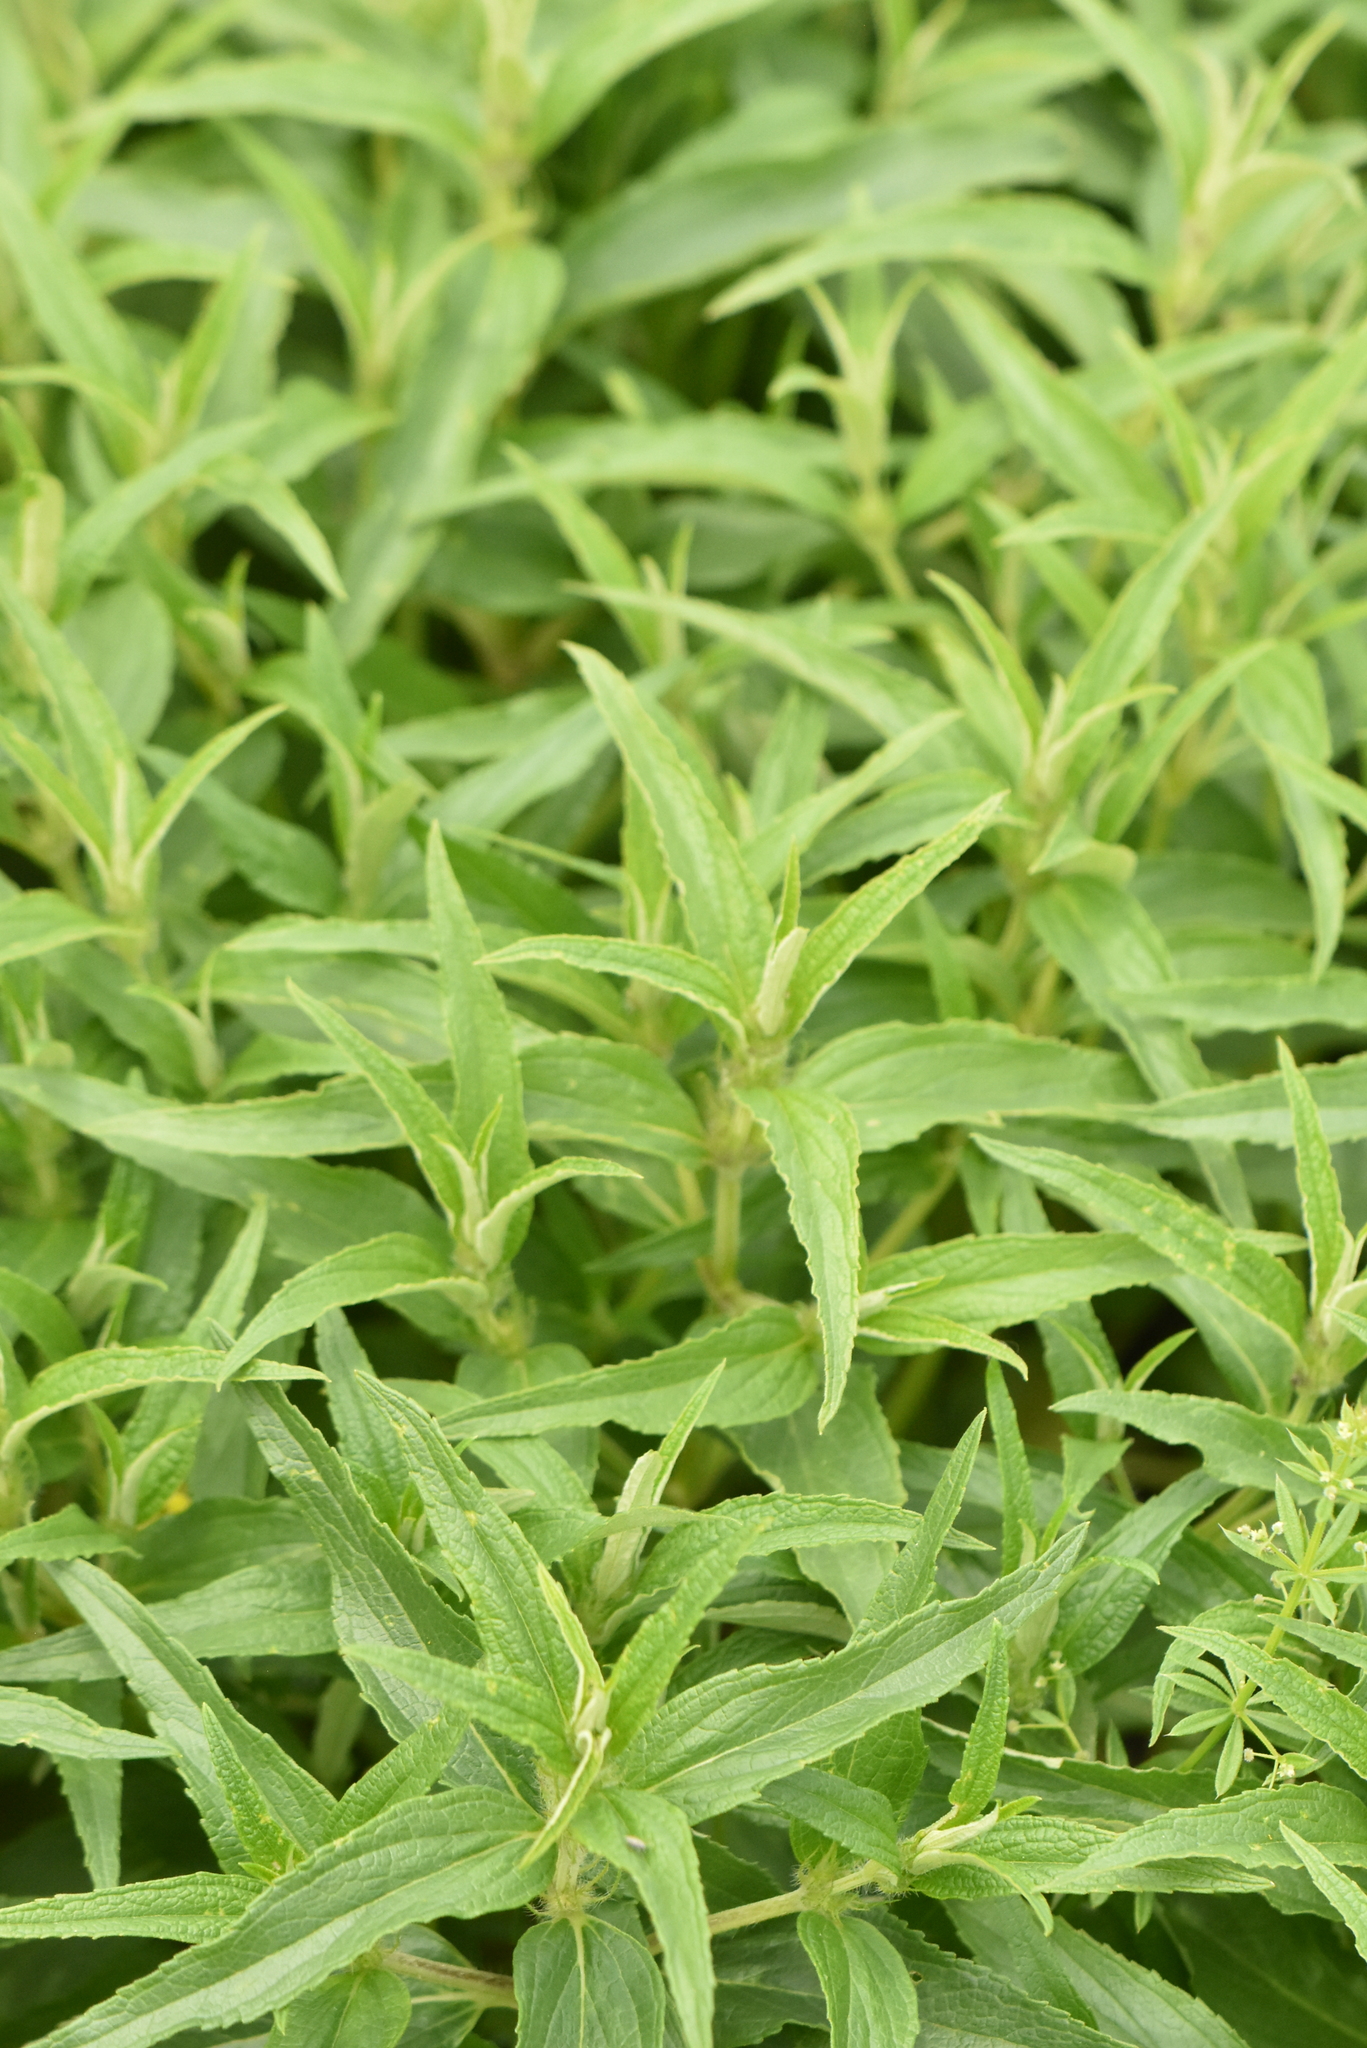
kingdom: Plantae
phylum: Tracheophyta
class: Magnoliopsida
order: Lamiales
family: Lamiaceae
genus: Phlomis
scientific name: Phlomis herba-venti
